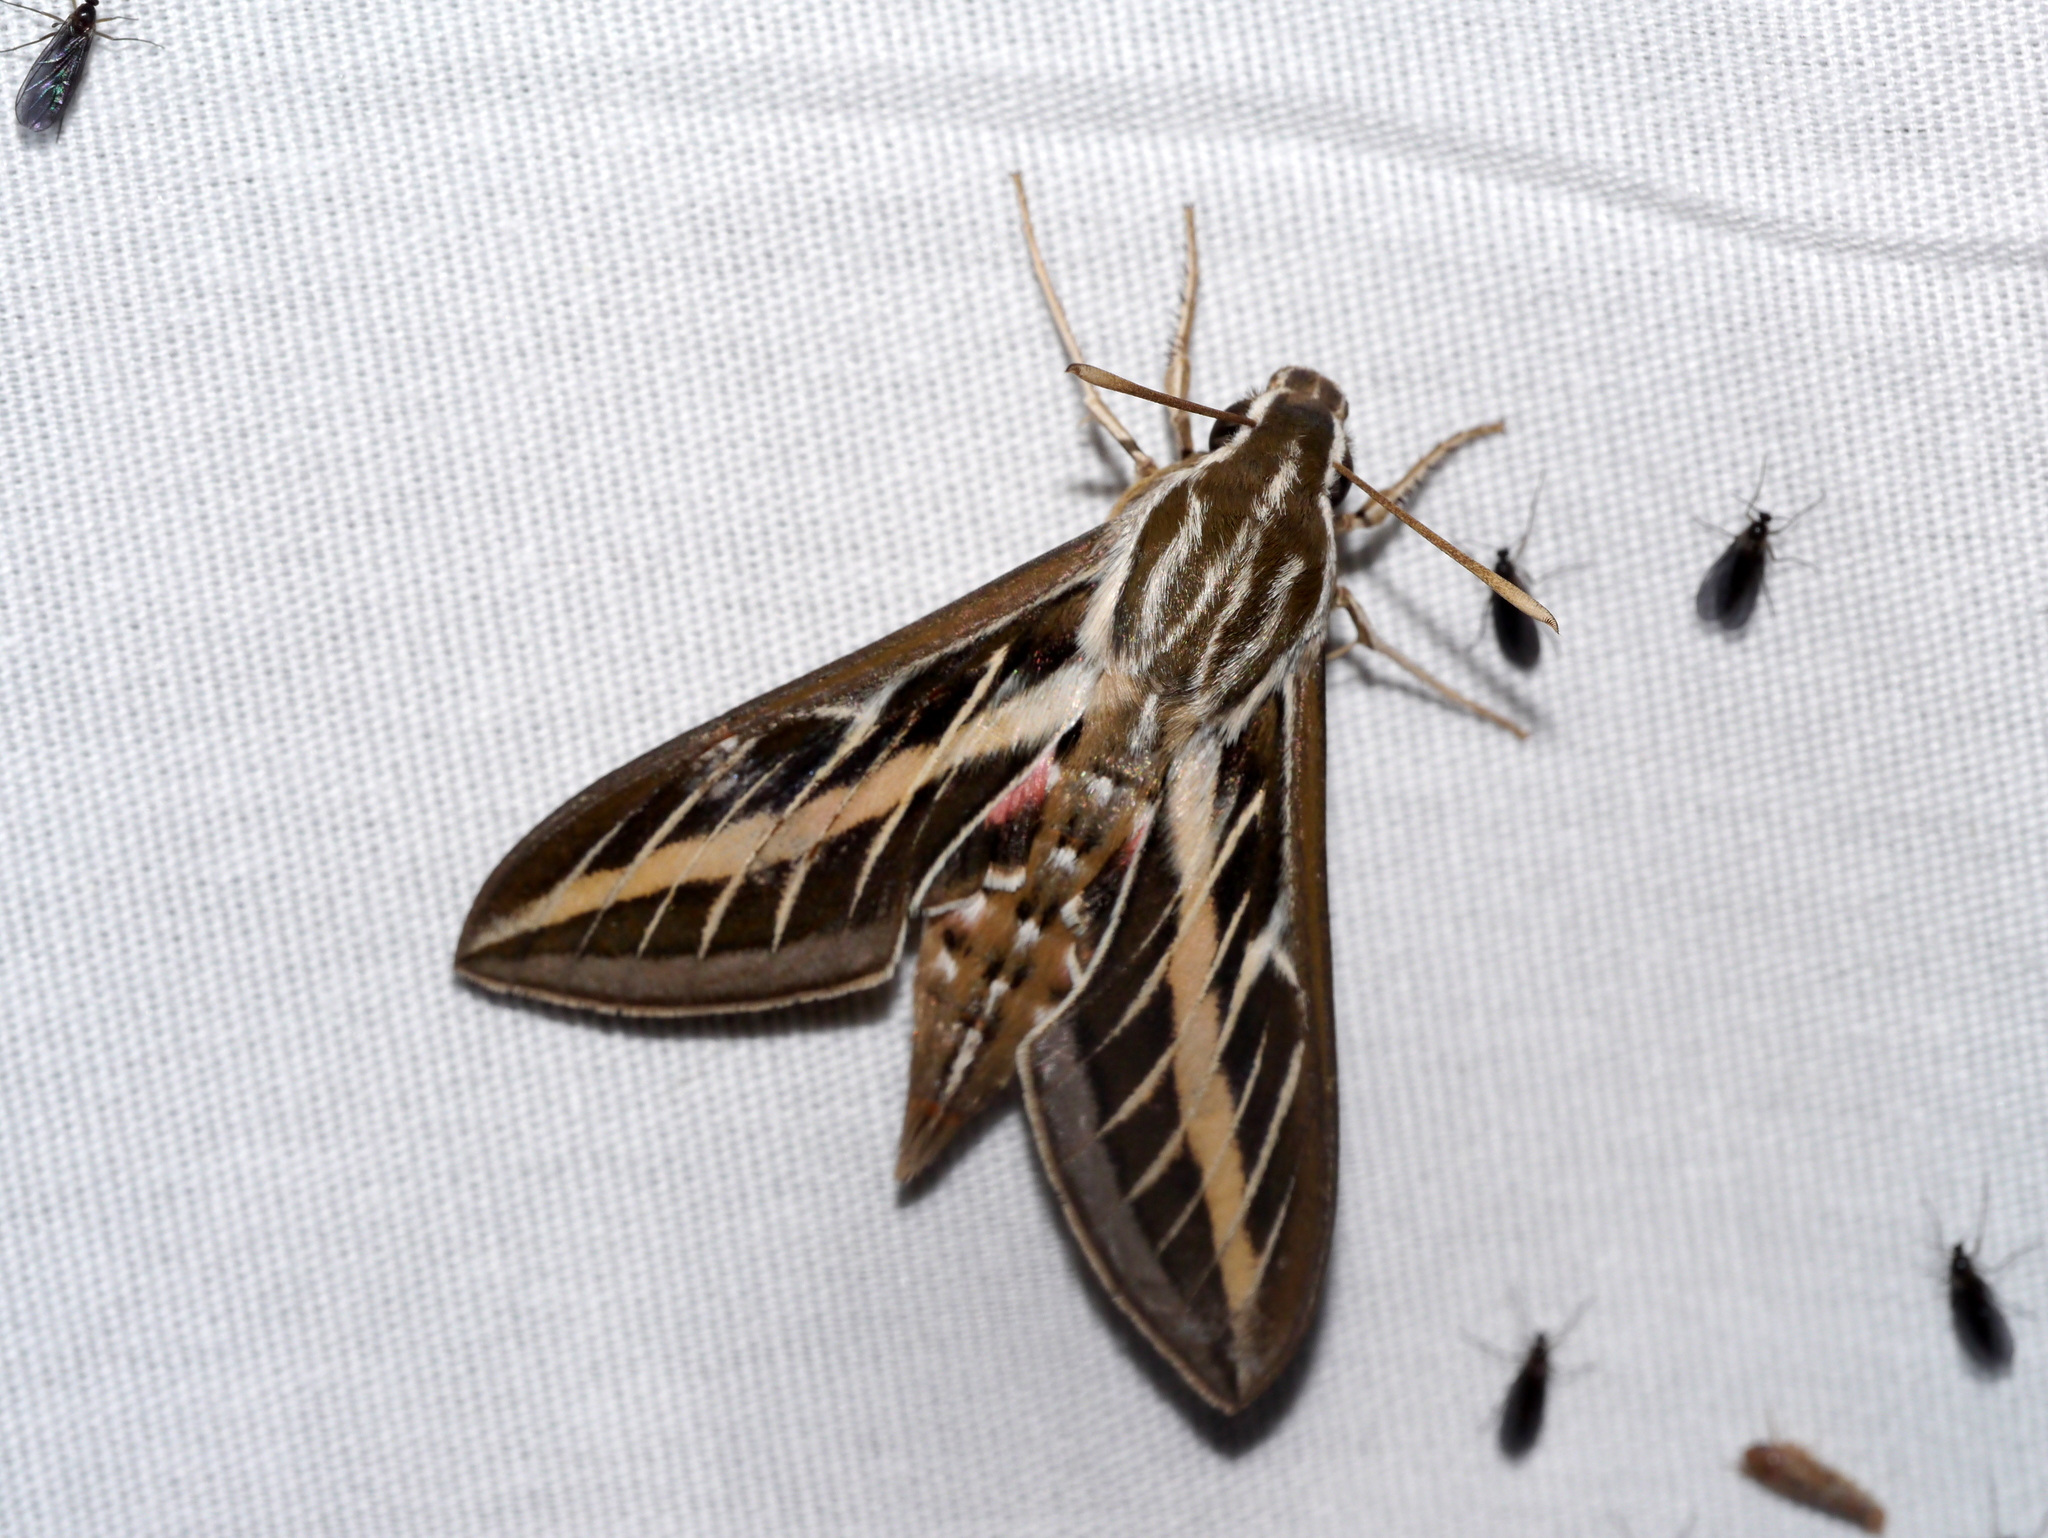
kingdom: Animalia
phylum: Arthropoda
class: Insecta
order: Lepidoptera
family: Sphingidae
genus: Hyles
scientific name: Hyles lineata
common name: White-lined sphinx
